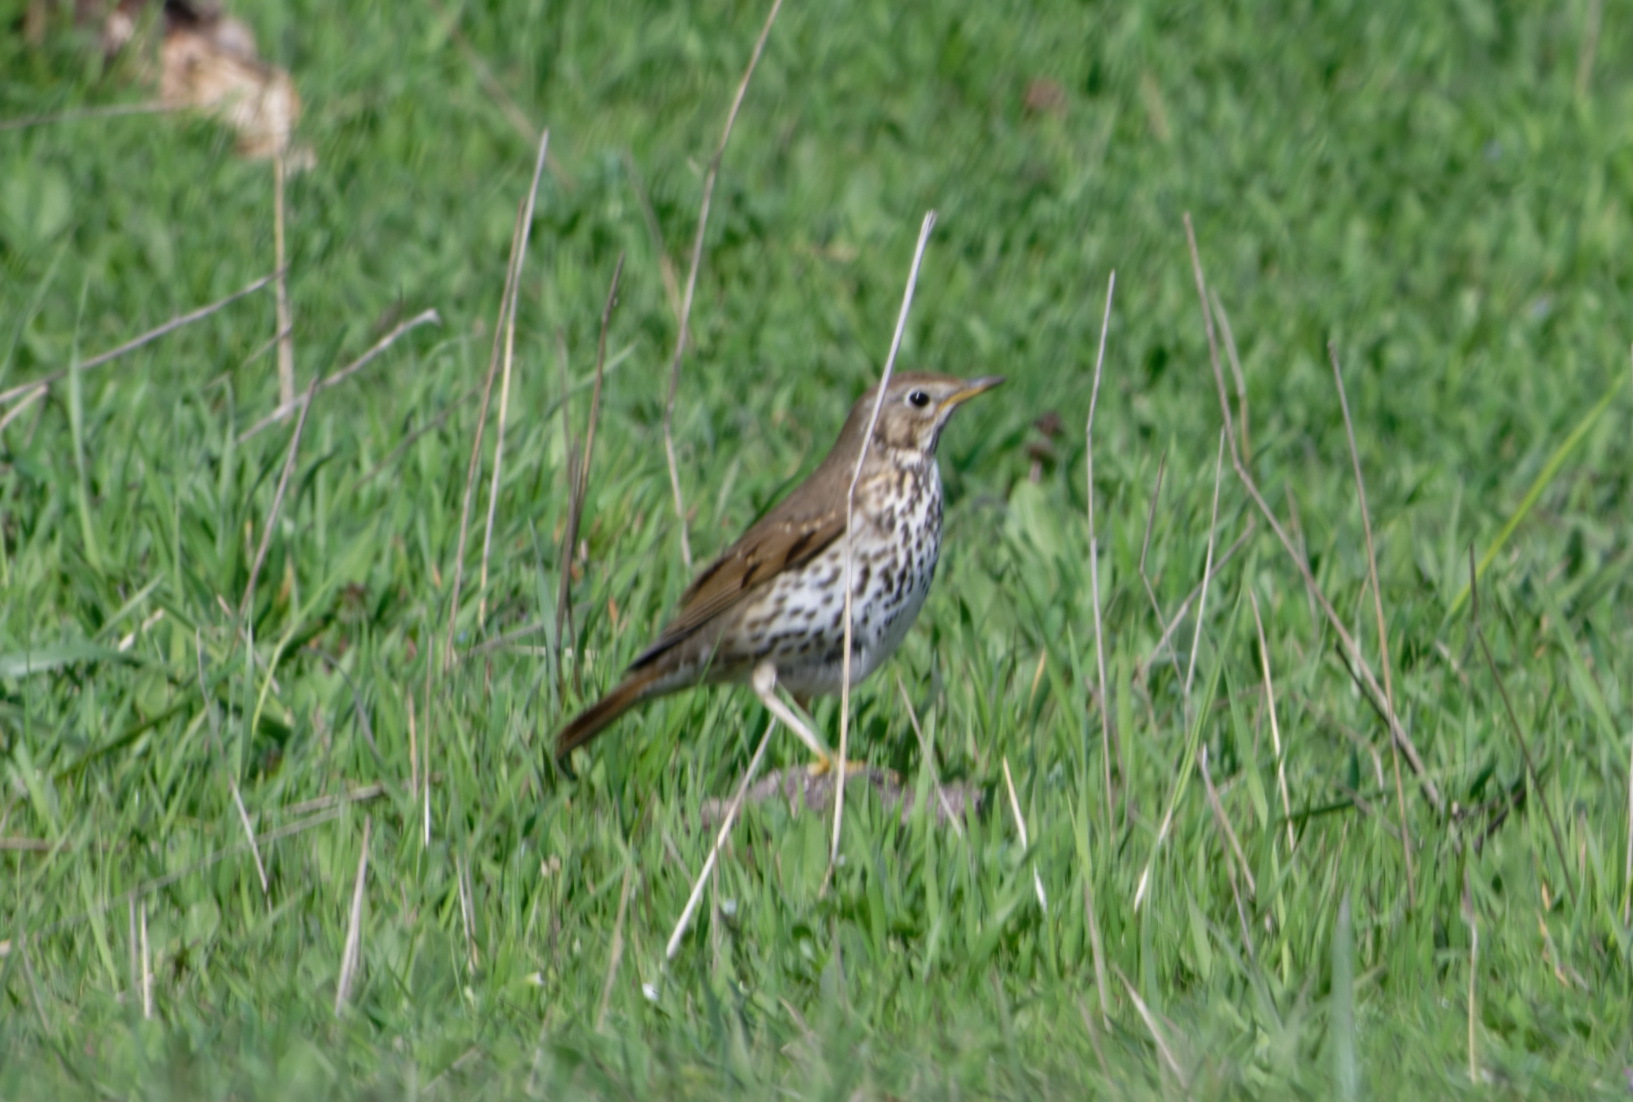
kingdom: Animalia
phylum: Chordata
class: Aves
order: Passeriformes
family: Turdidae
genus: Turdus
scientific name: Turdus philomelos
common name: Song thrush
